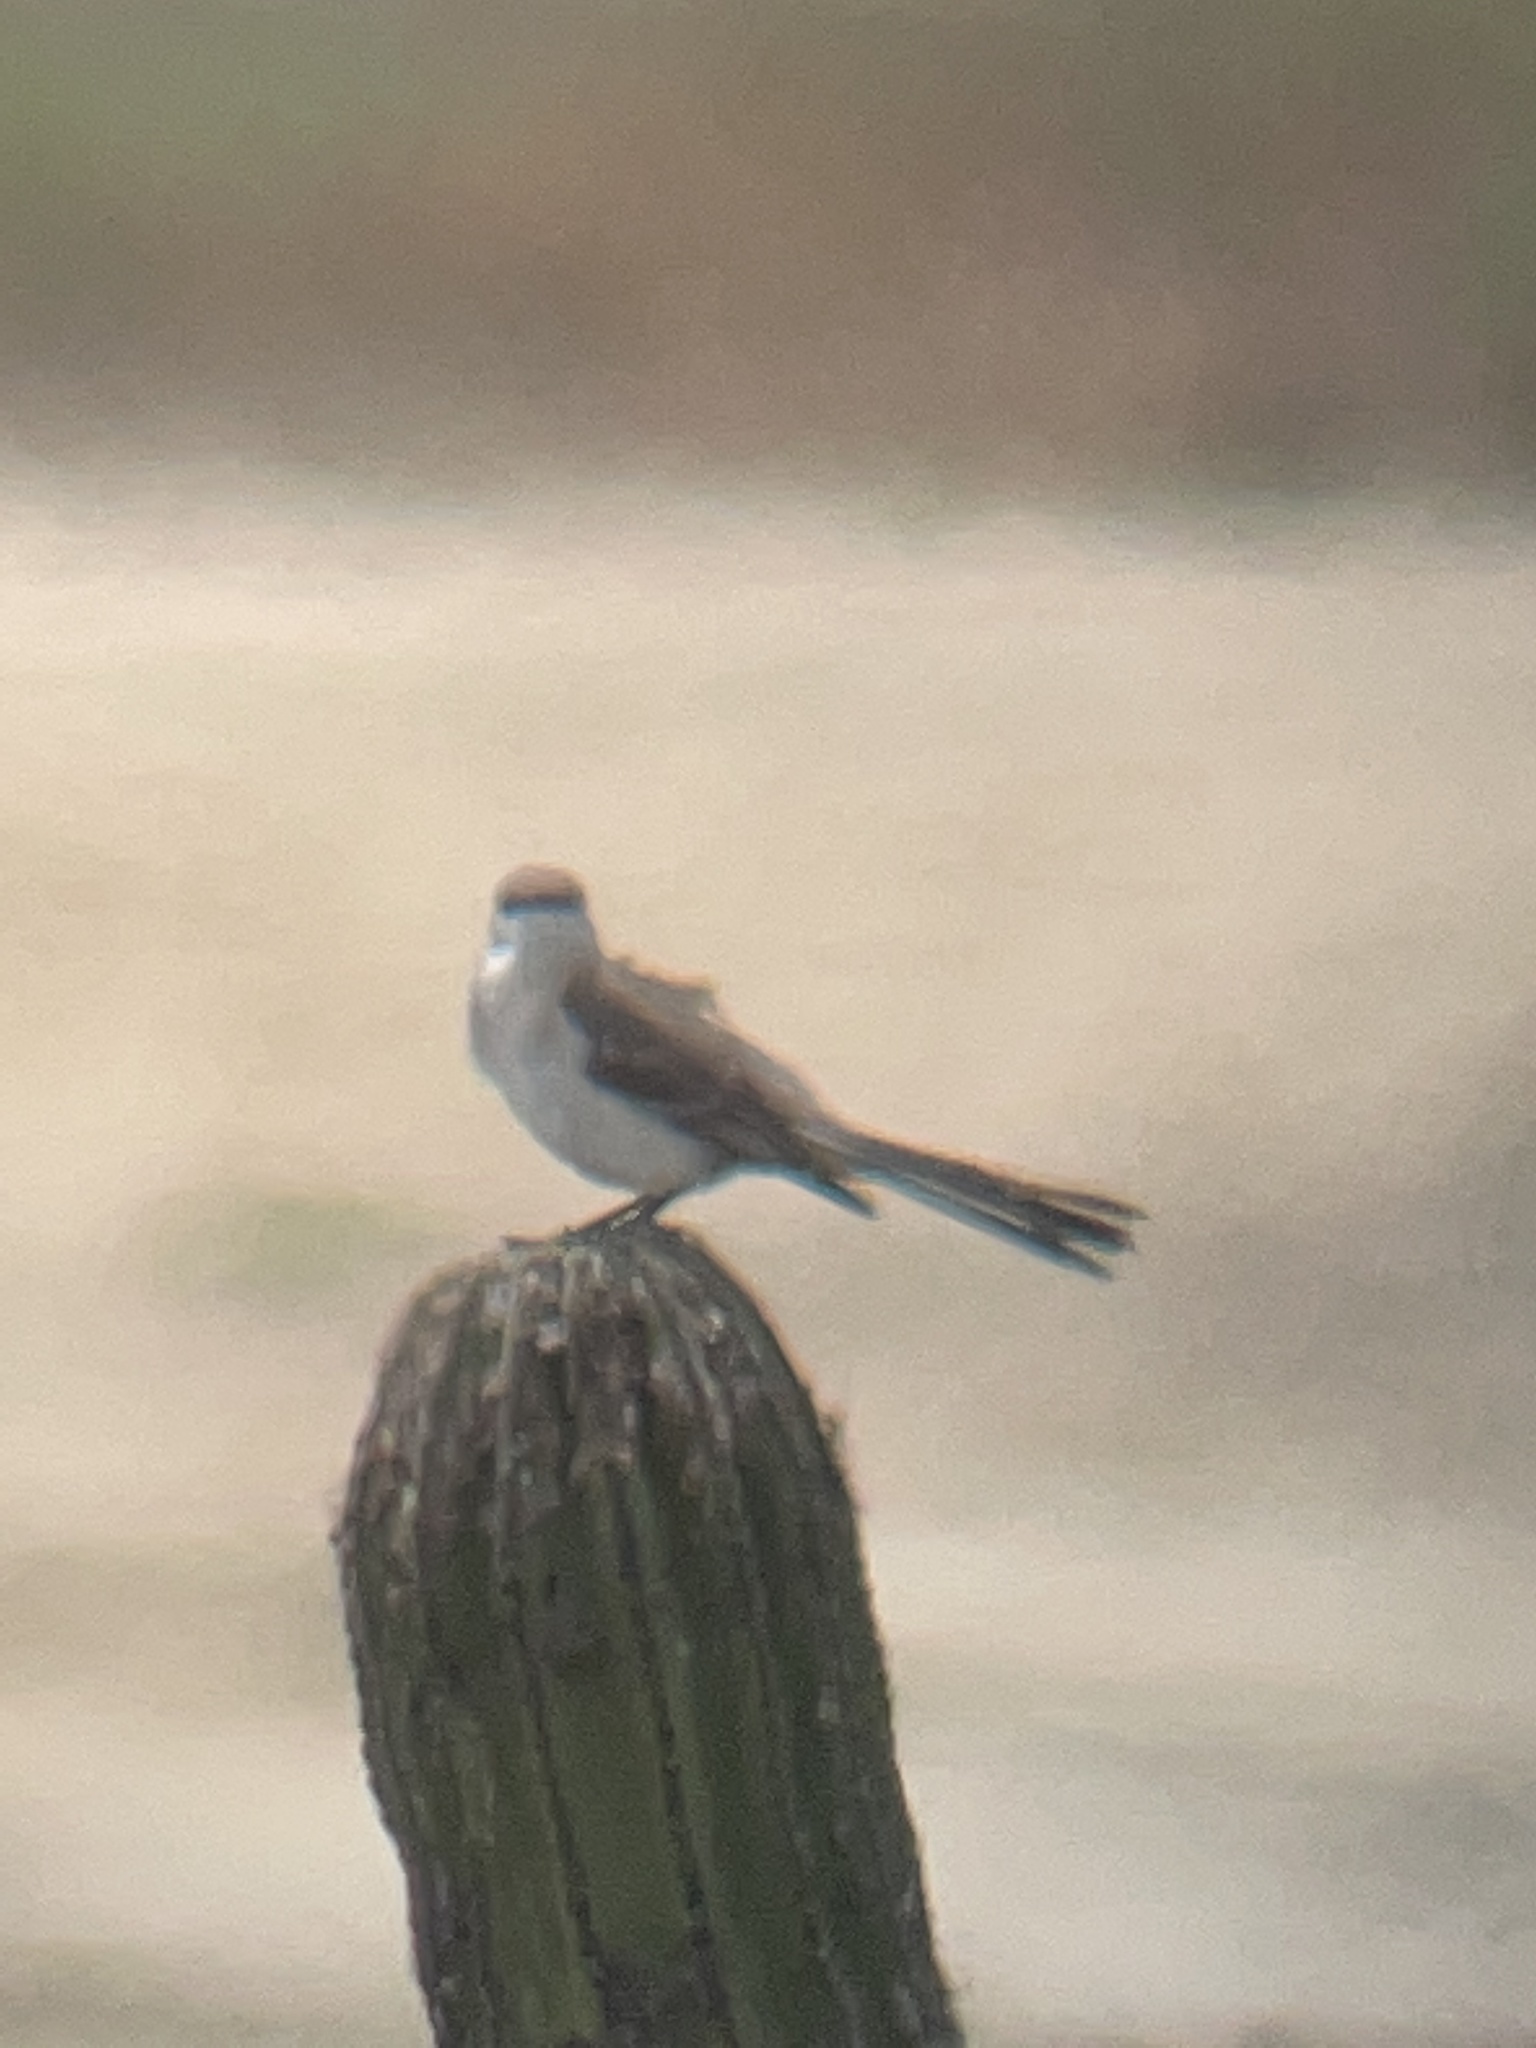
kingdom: Animalia
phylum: Chordata
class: Aves
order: Passeriformes
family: Mimidae
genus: Mimus
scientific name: Mimus polyglottos
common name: Northern mockingbird
